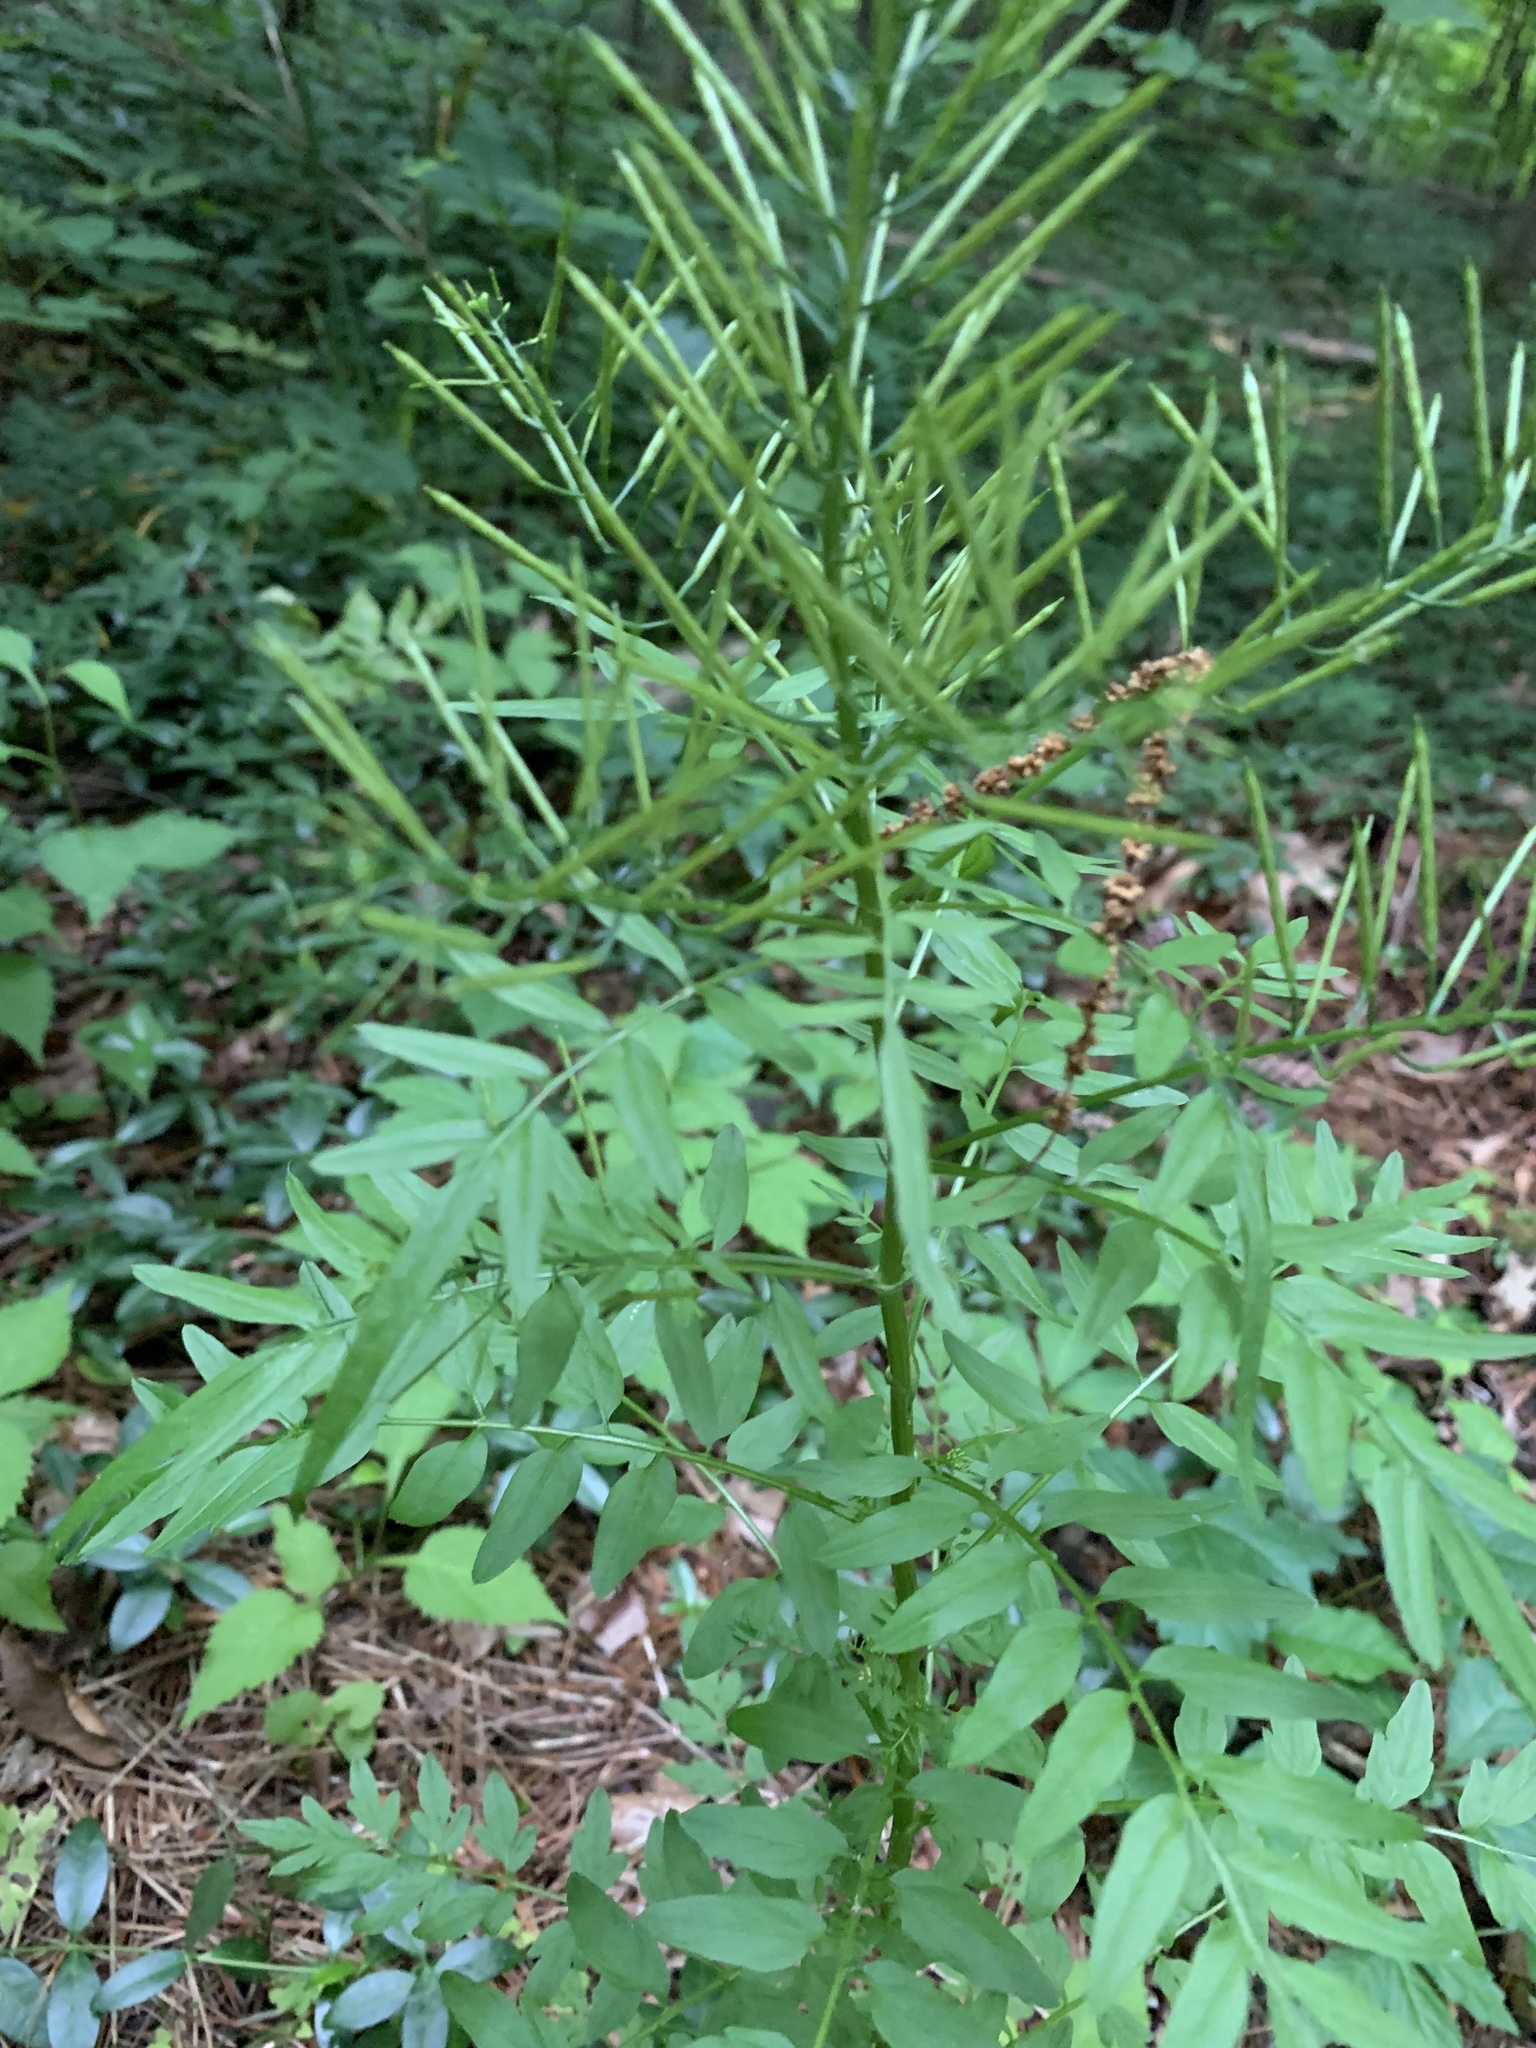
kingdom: Plantae
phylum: Tracheophyta
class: Magnoliopsida
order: Brassicales
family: Brassicaceae
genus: Cardamine
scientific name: Cardamine impatiens
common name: Narrow-leaved bitter-cress
